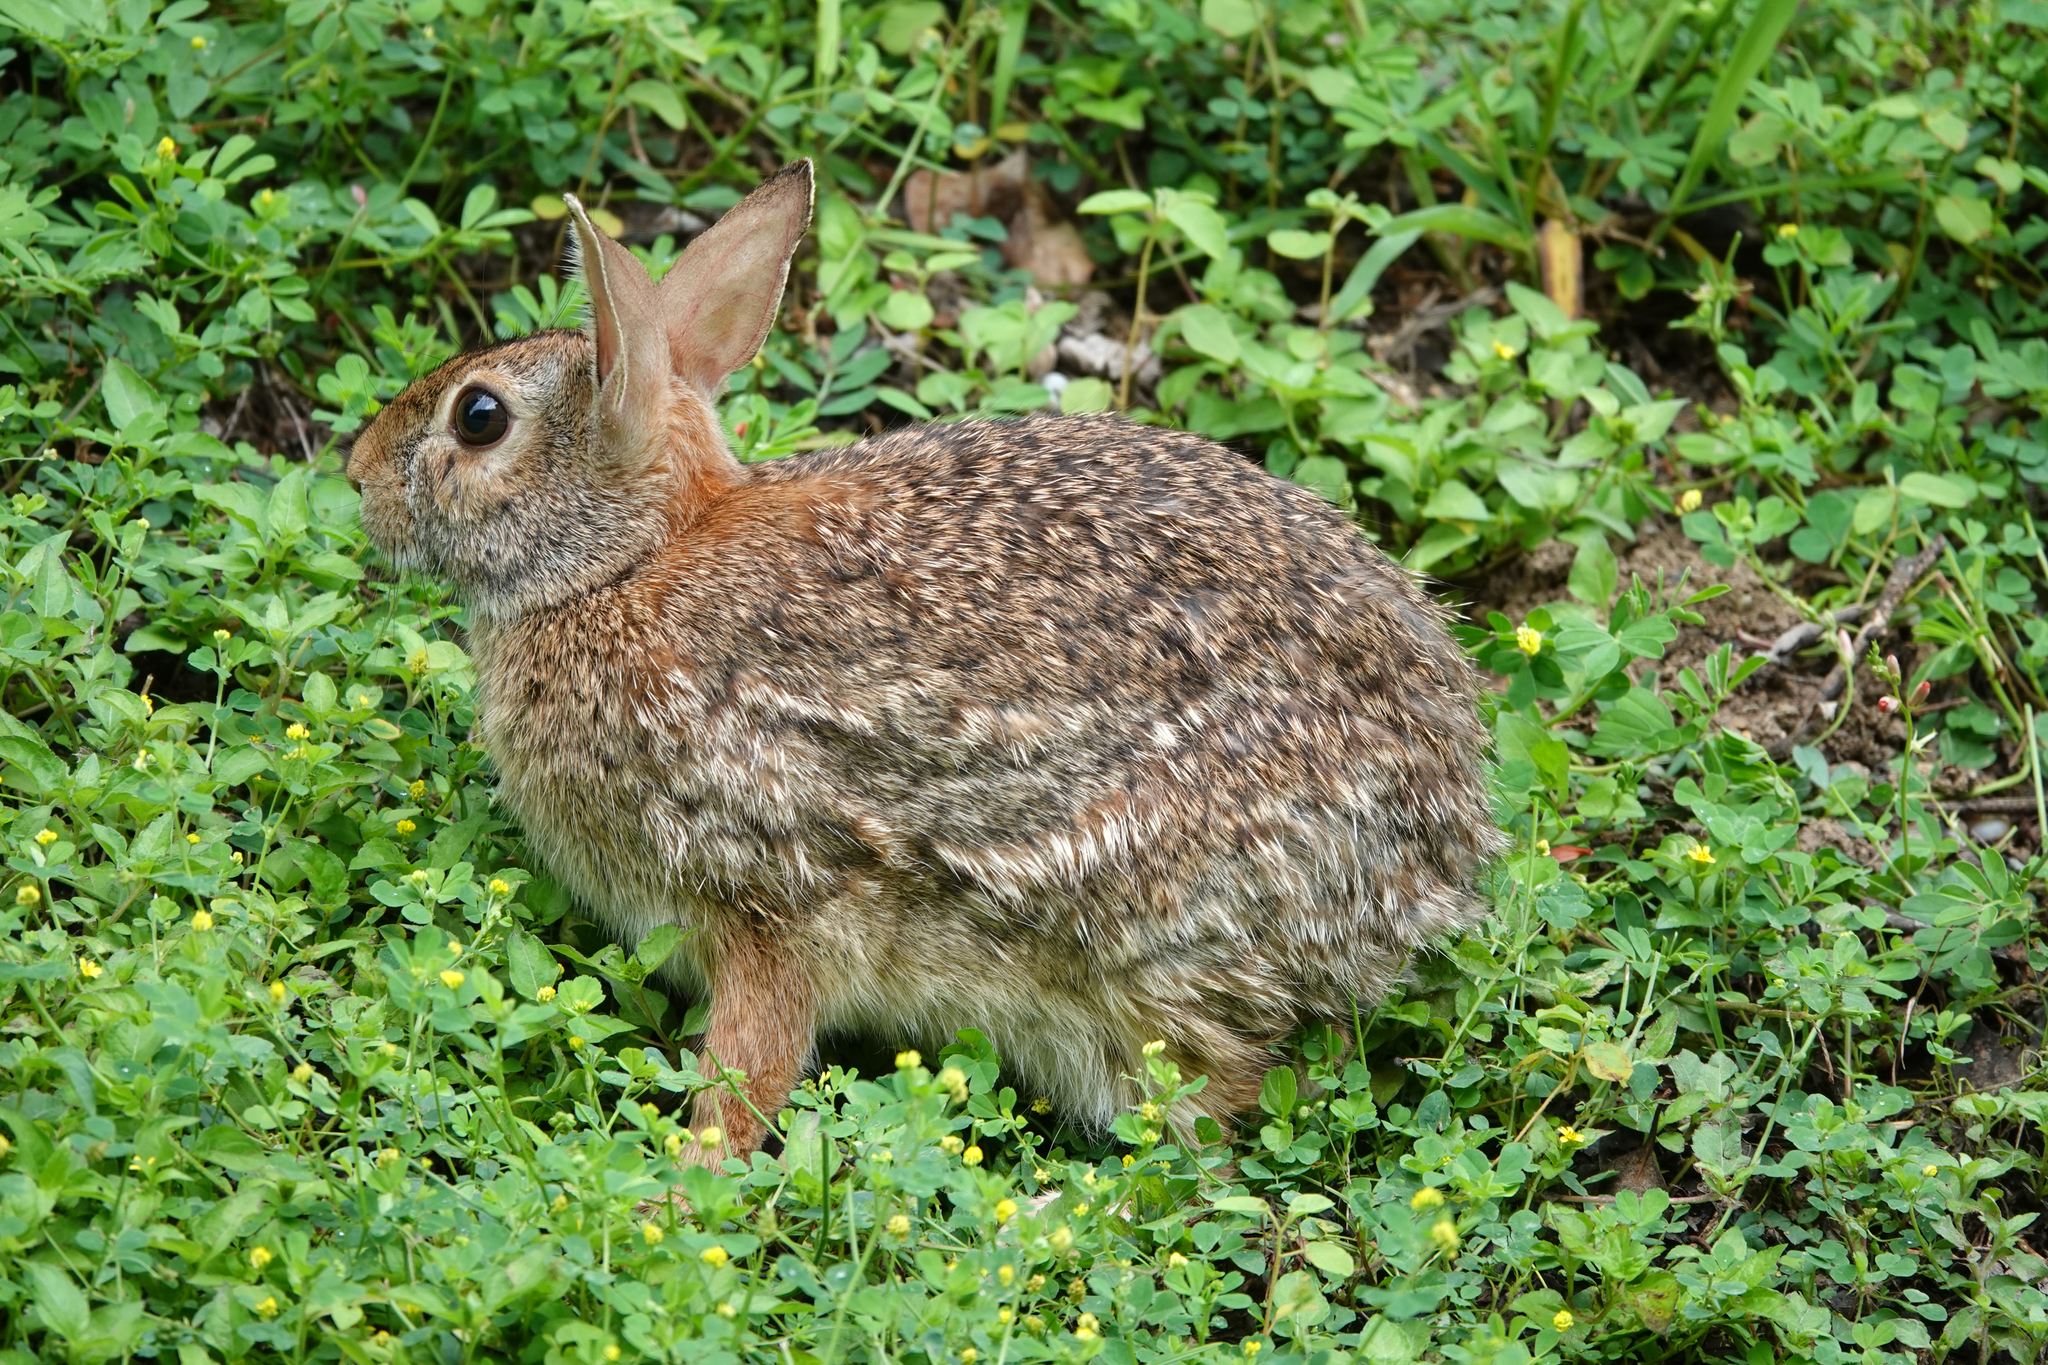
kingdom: Animalia
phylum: Chordata
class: Mammalia
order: Lagomorpha
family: Leporidae
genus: Sylvilagus
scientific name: Sylvilagus floridanus
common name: Eastern cottontail
